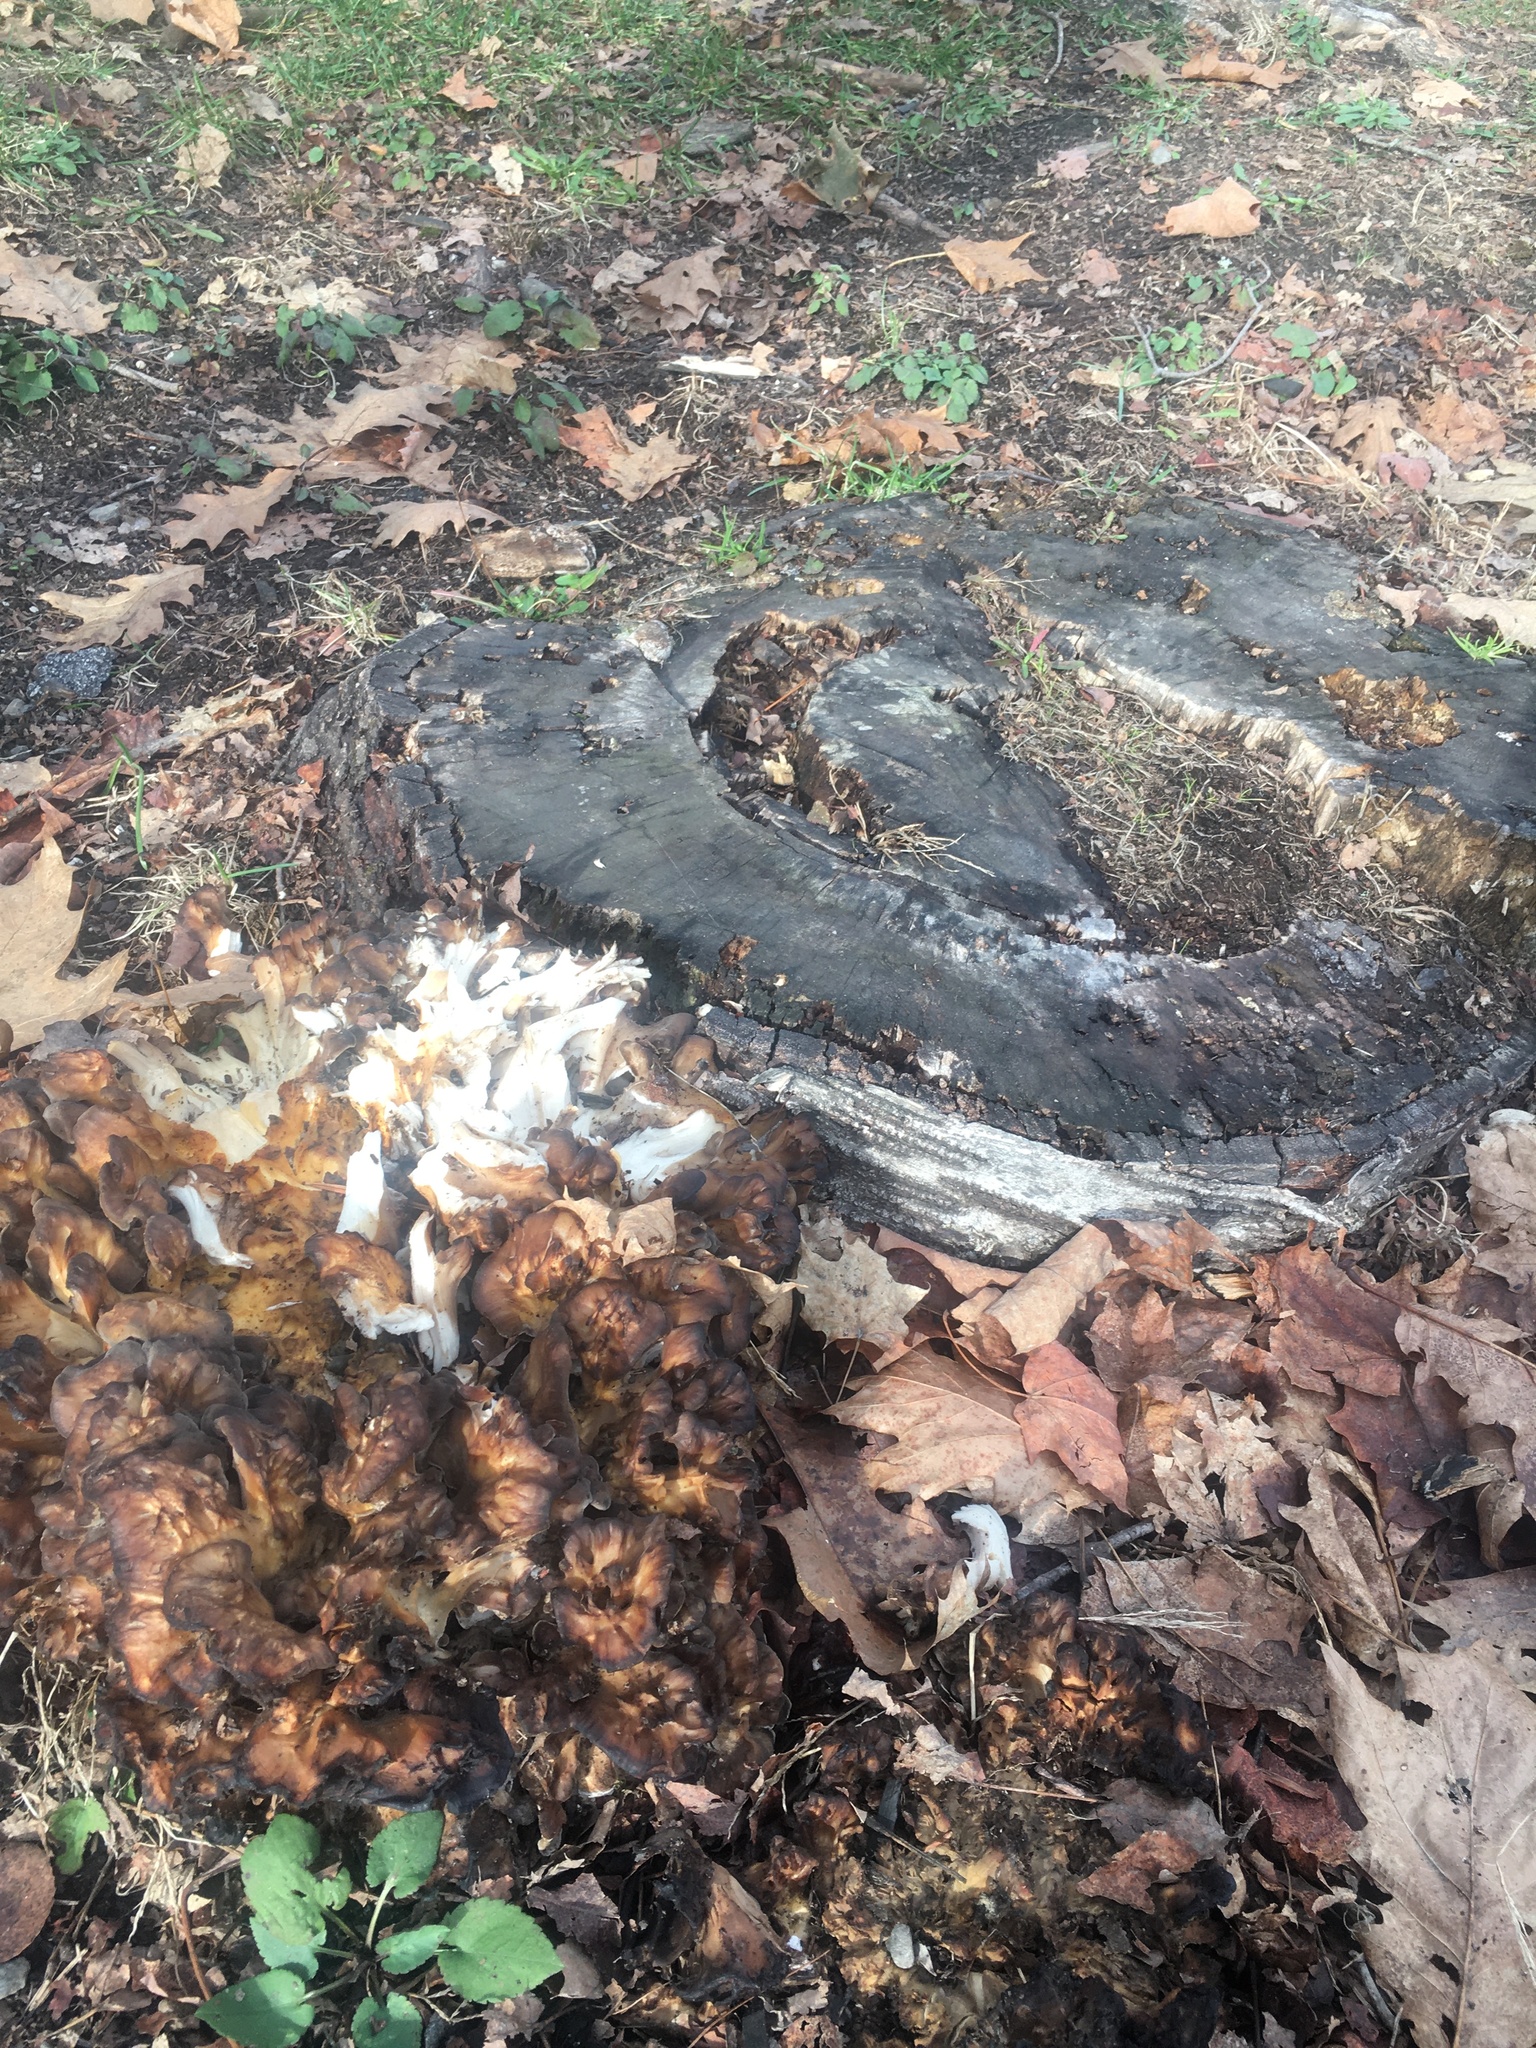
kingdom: Fungi
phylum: Basidiomycota
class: Agaricomycetes
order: Polyporales
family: Grifolaceae
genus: Grifola
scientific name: Grifola frondosa
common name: Hen of the woods
